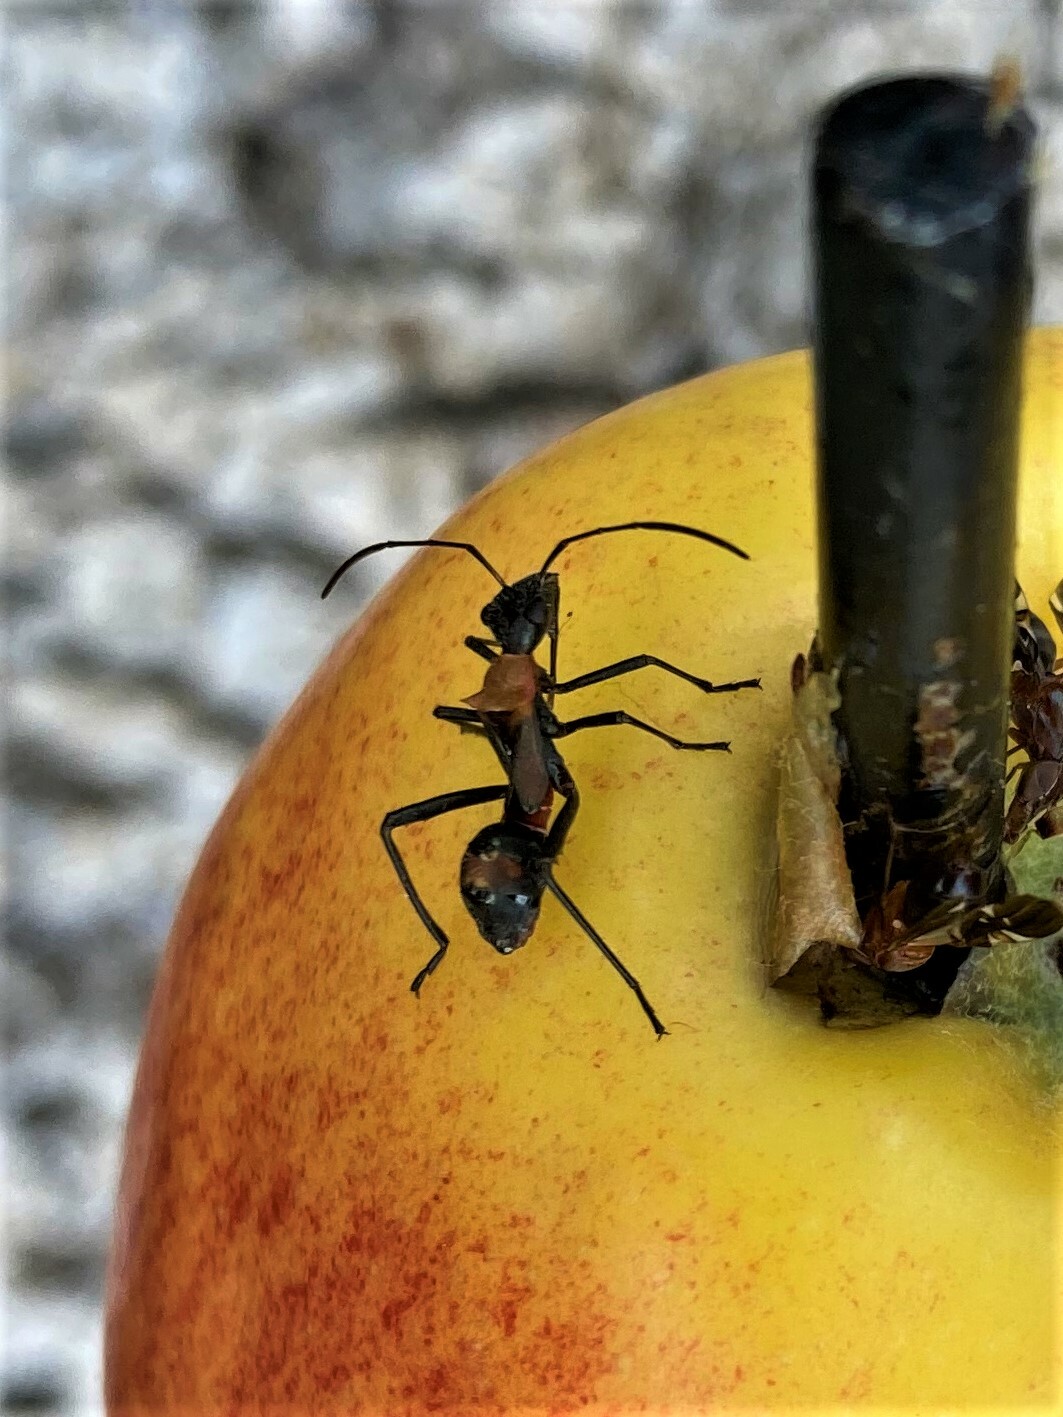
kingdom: Animalia
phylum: Arthropoda
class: Insecta
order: Hemiptera
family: Alydidae
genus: Hyalymenus
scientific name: Hyalymenus tarsatus
